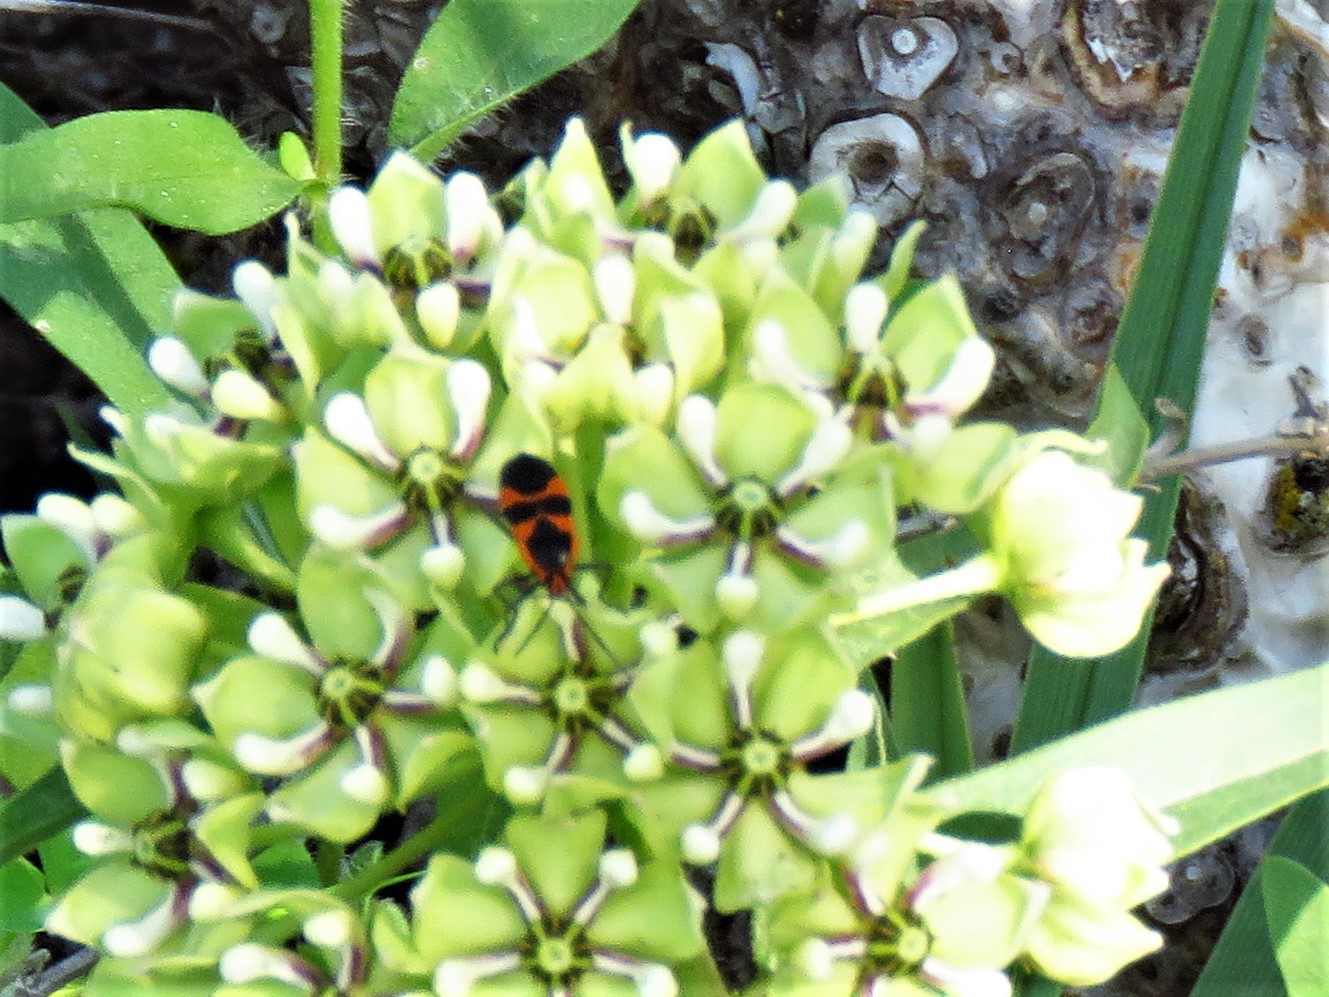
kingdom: Animalia
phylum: Arthropoda
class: Insecta
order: Hemiptera
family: Lygaeidae
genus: Oncopeltus
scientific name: Oncopeltus fasciatus
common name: Large milkweed bug
